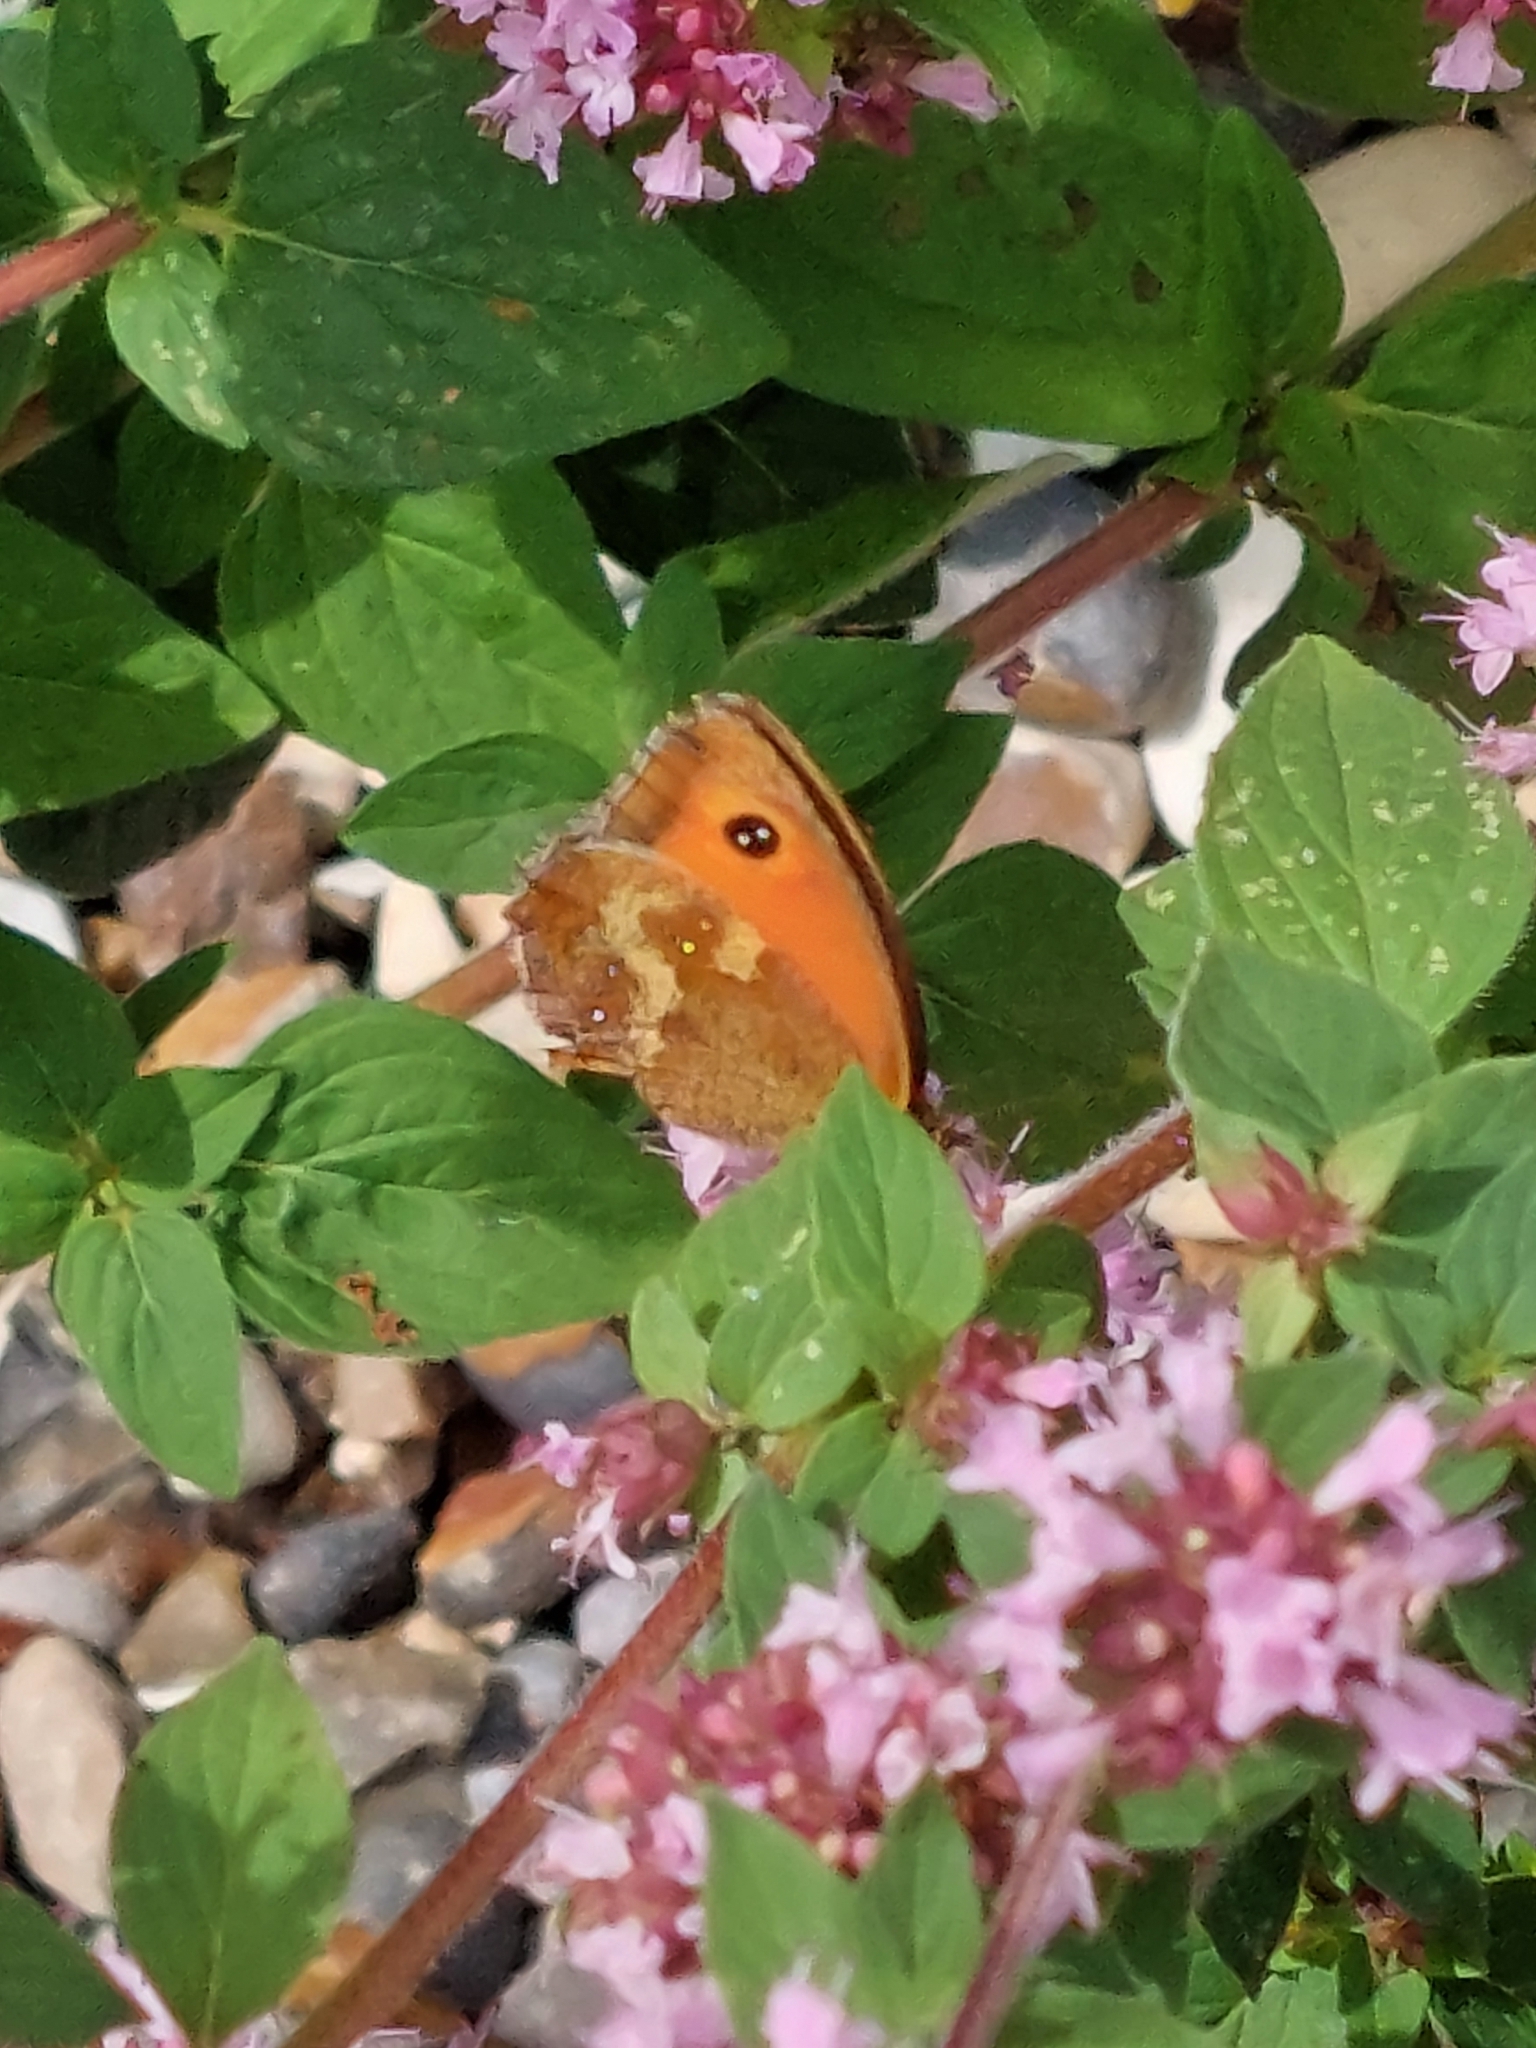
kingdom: Animalia
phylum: Arthropoda
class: Insecta
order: Lepidoptera
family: Nymphalidae
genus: Pyronia
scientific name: Pyronia tithonus
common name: Gatekeeper
